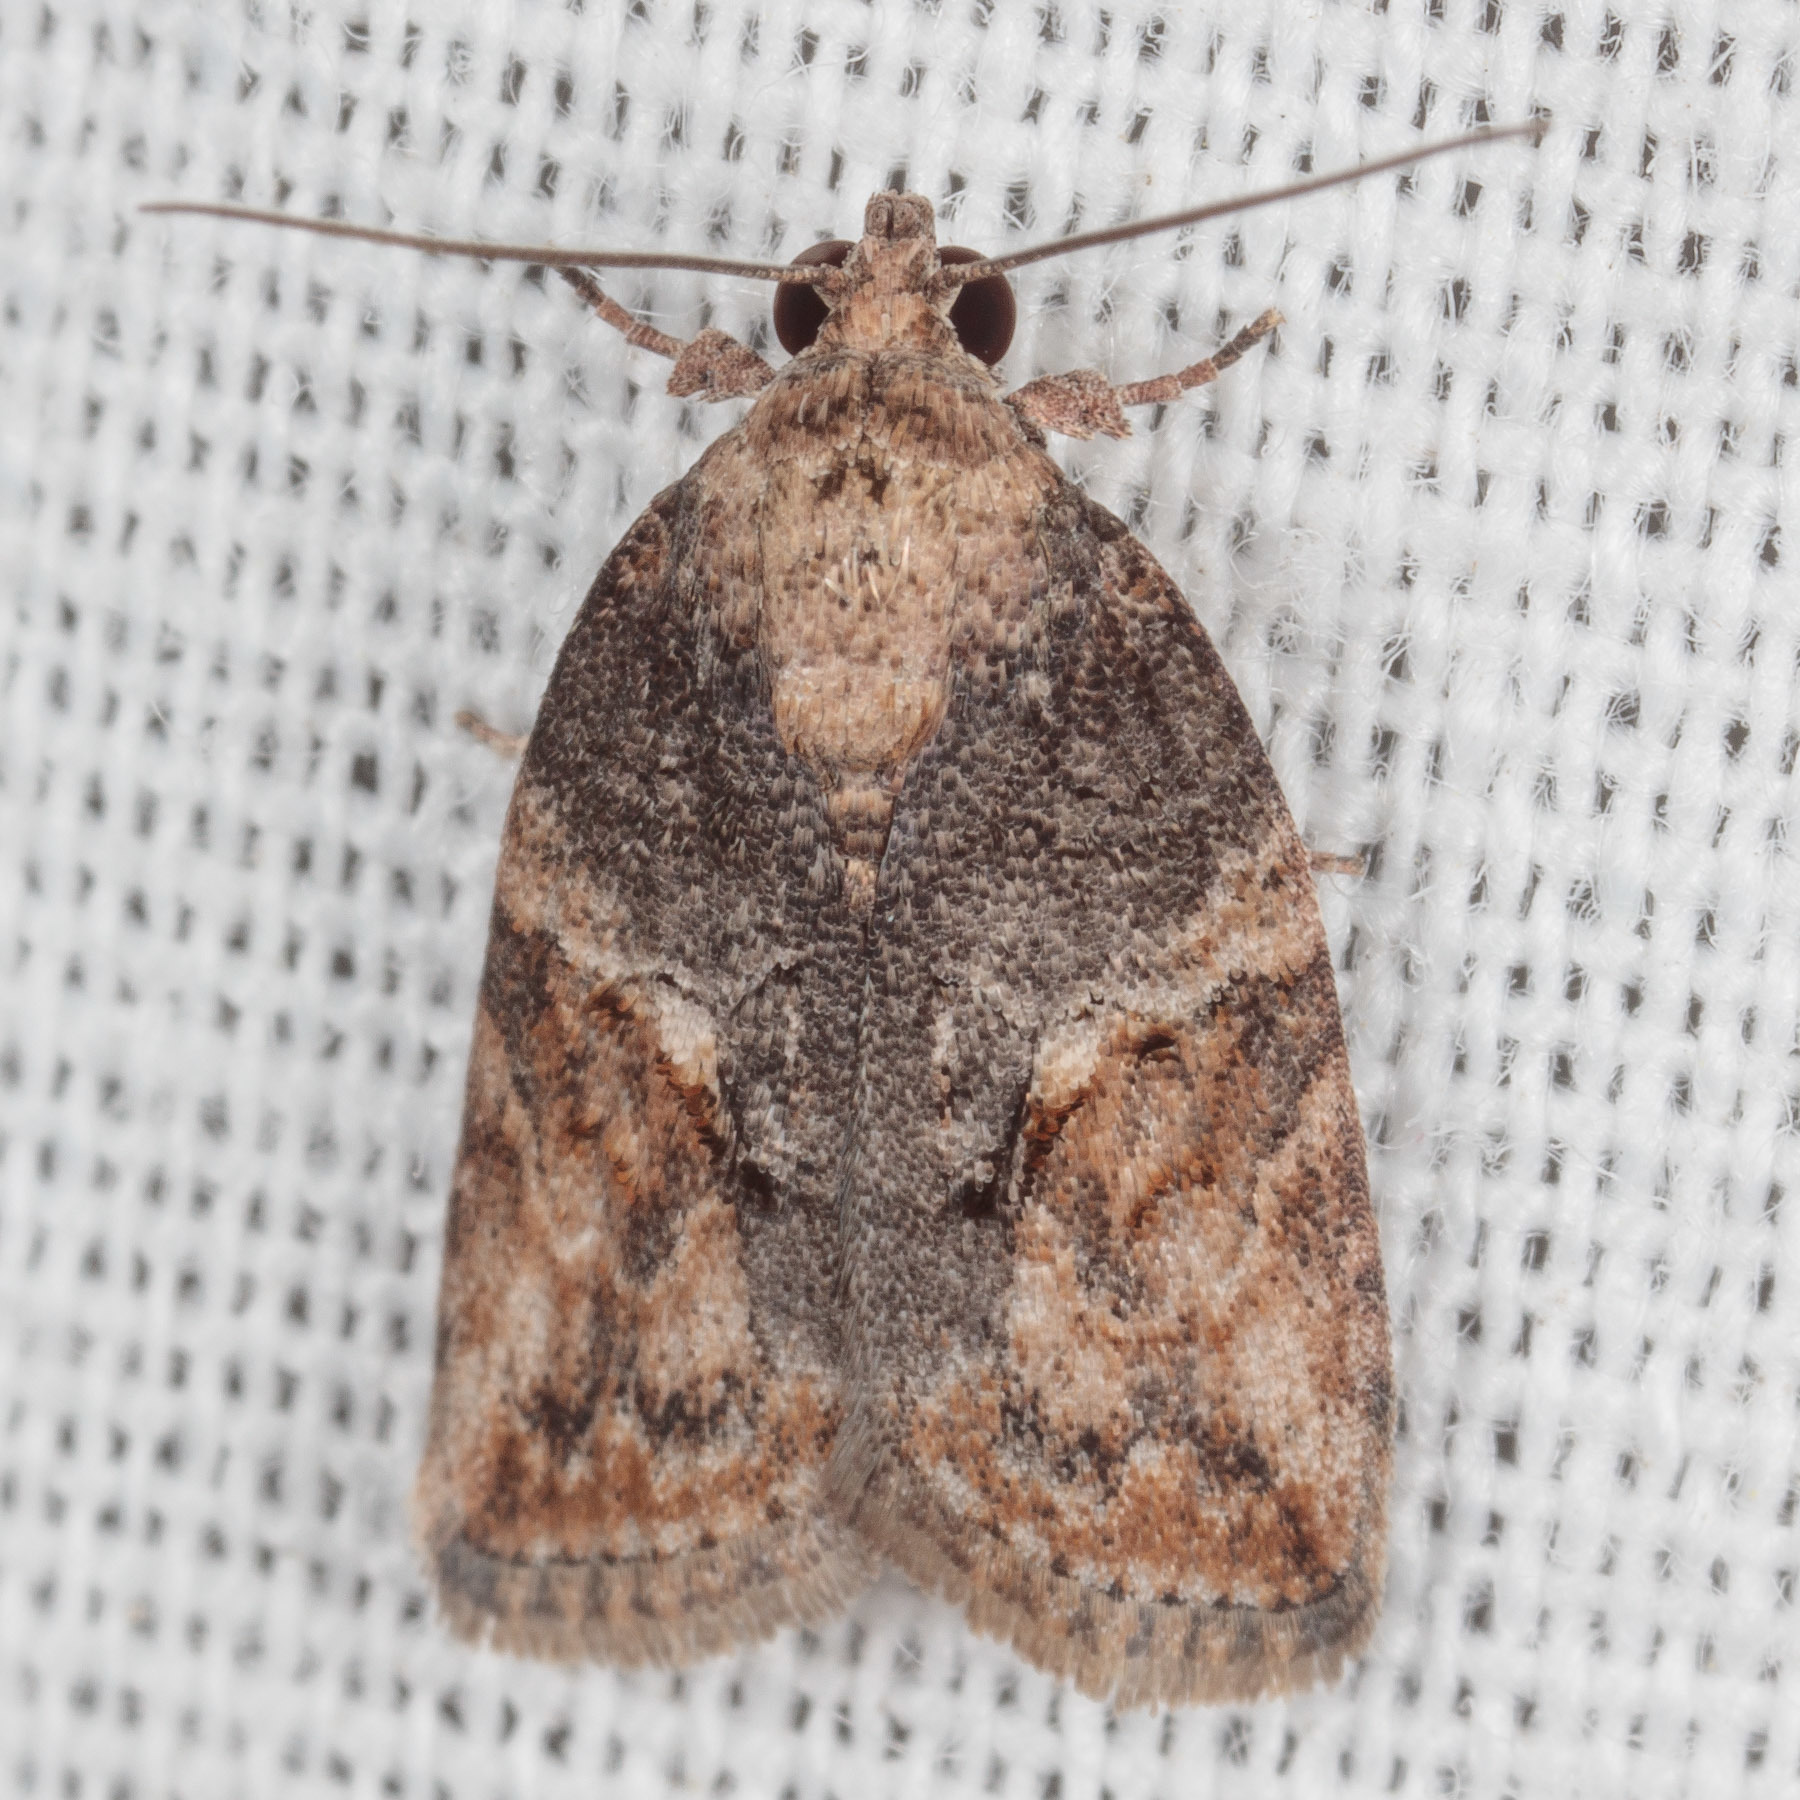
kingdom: Animalia
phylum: Arthropoda
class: Insecta
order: Lepidoptera
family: Nolidae
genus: Garella
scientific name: Garella nilotica
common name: Black-olive caterpillar moth
